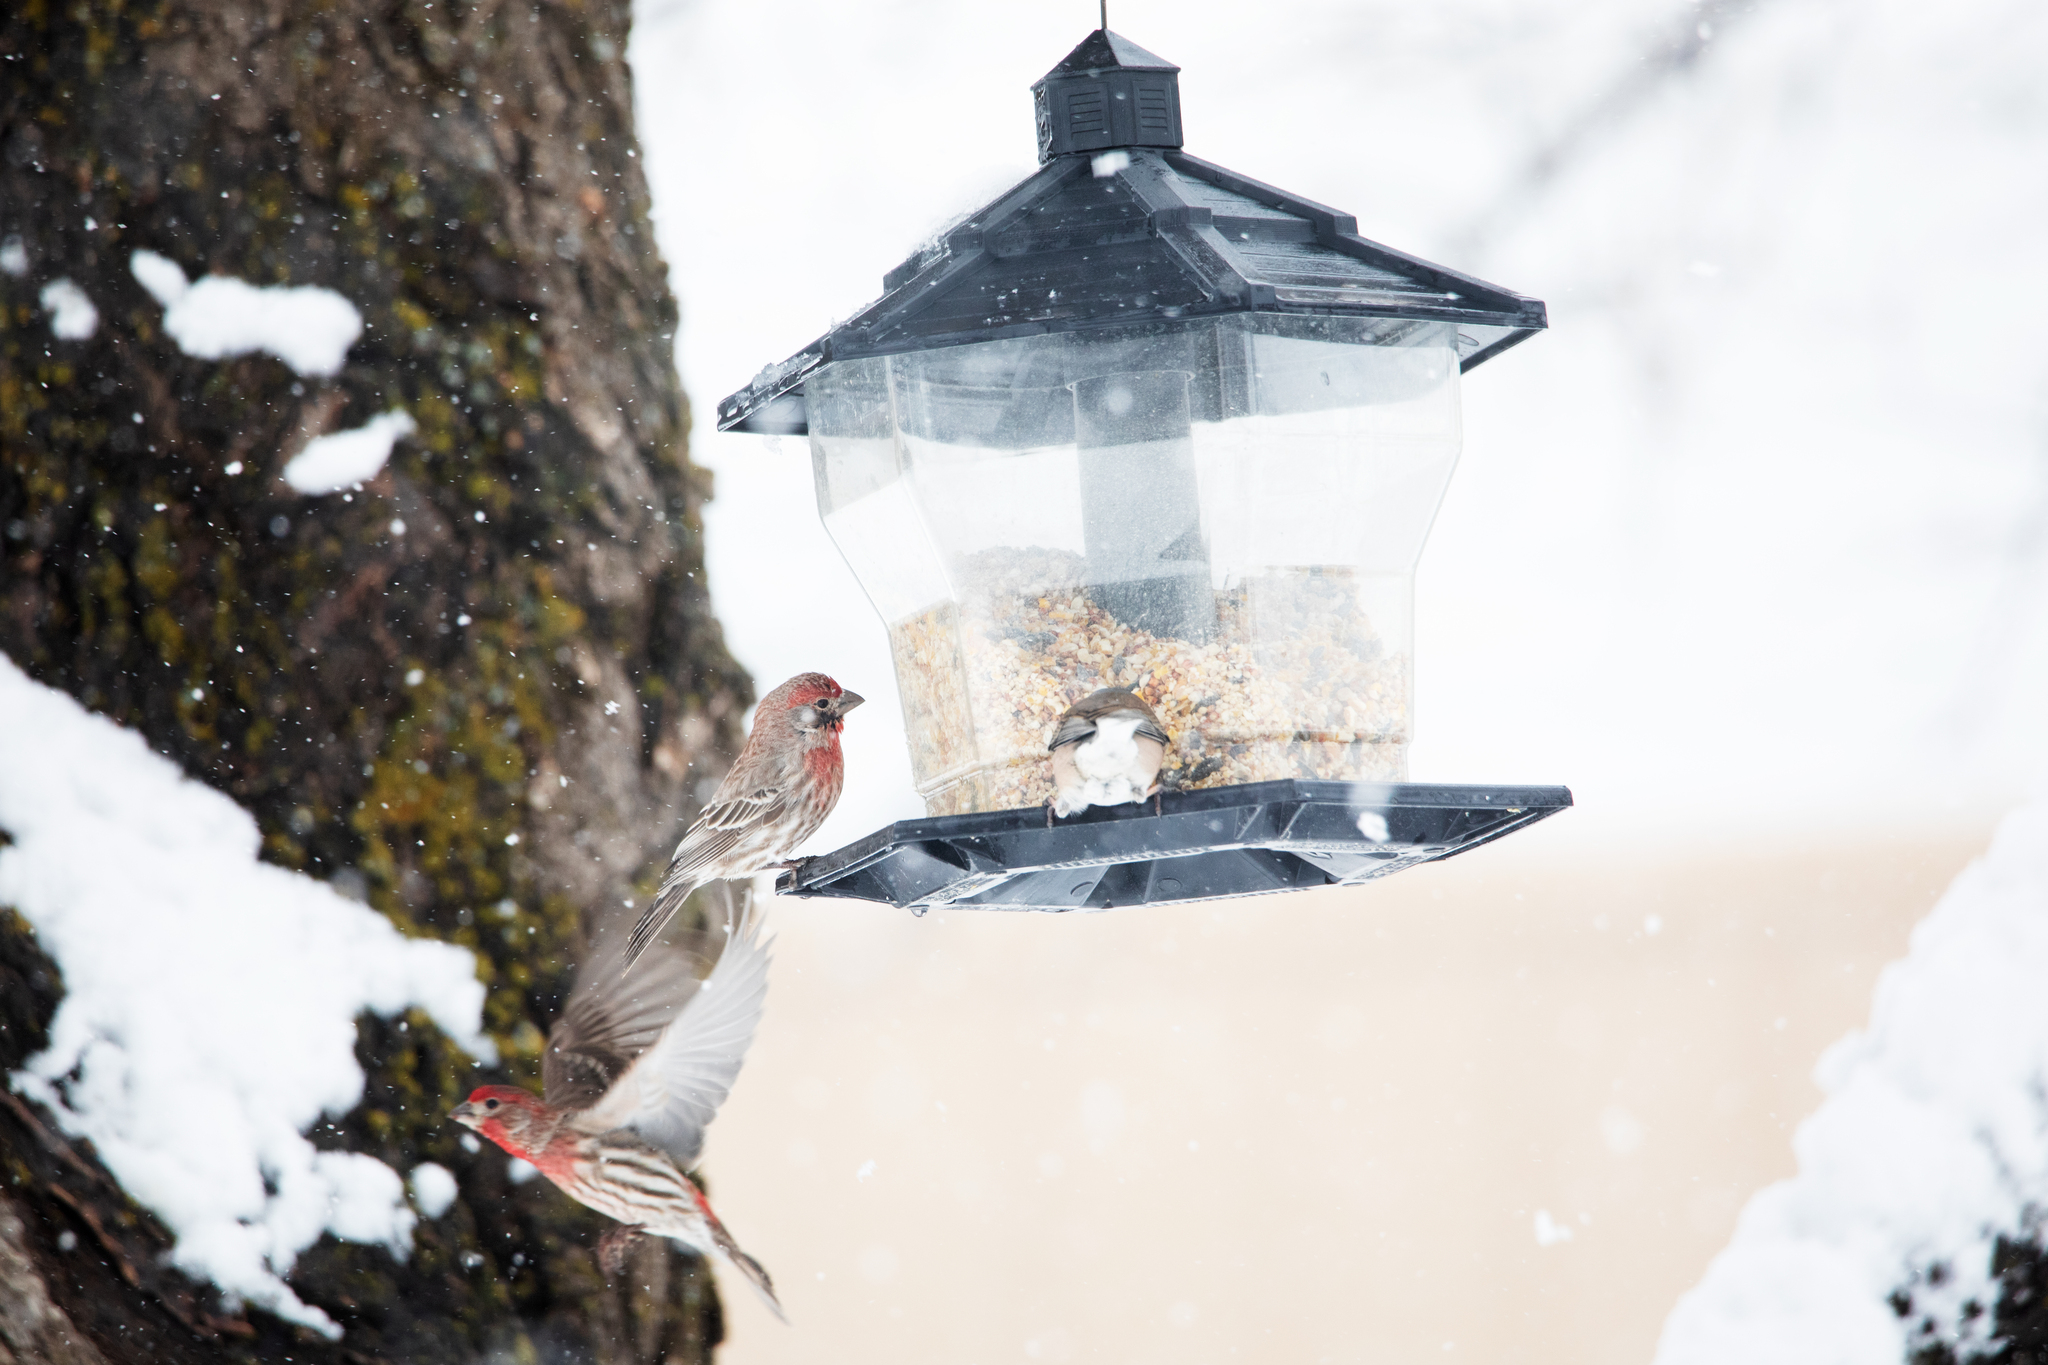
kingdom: Animalia
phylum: Chordata
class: Aves
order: Passeriformes
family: Fringillidae
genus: Haemorhous
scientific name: Haemorhous mexicanus
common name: House finch
